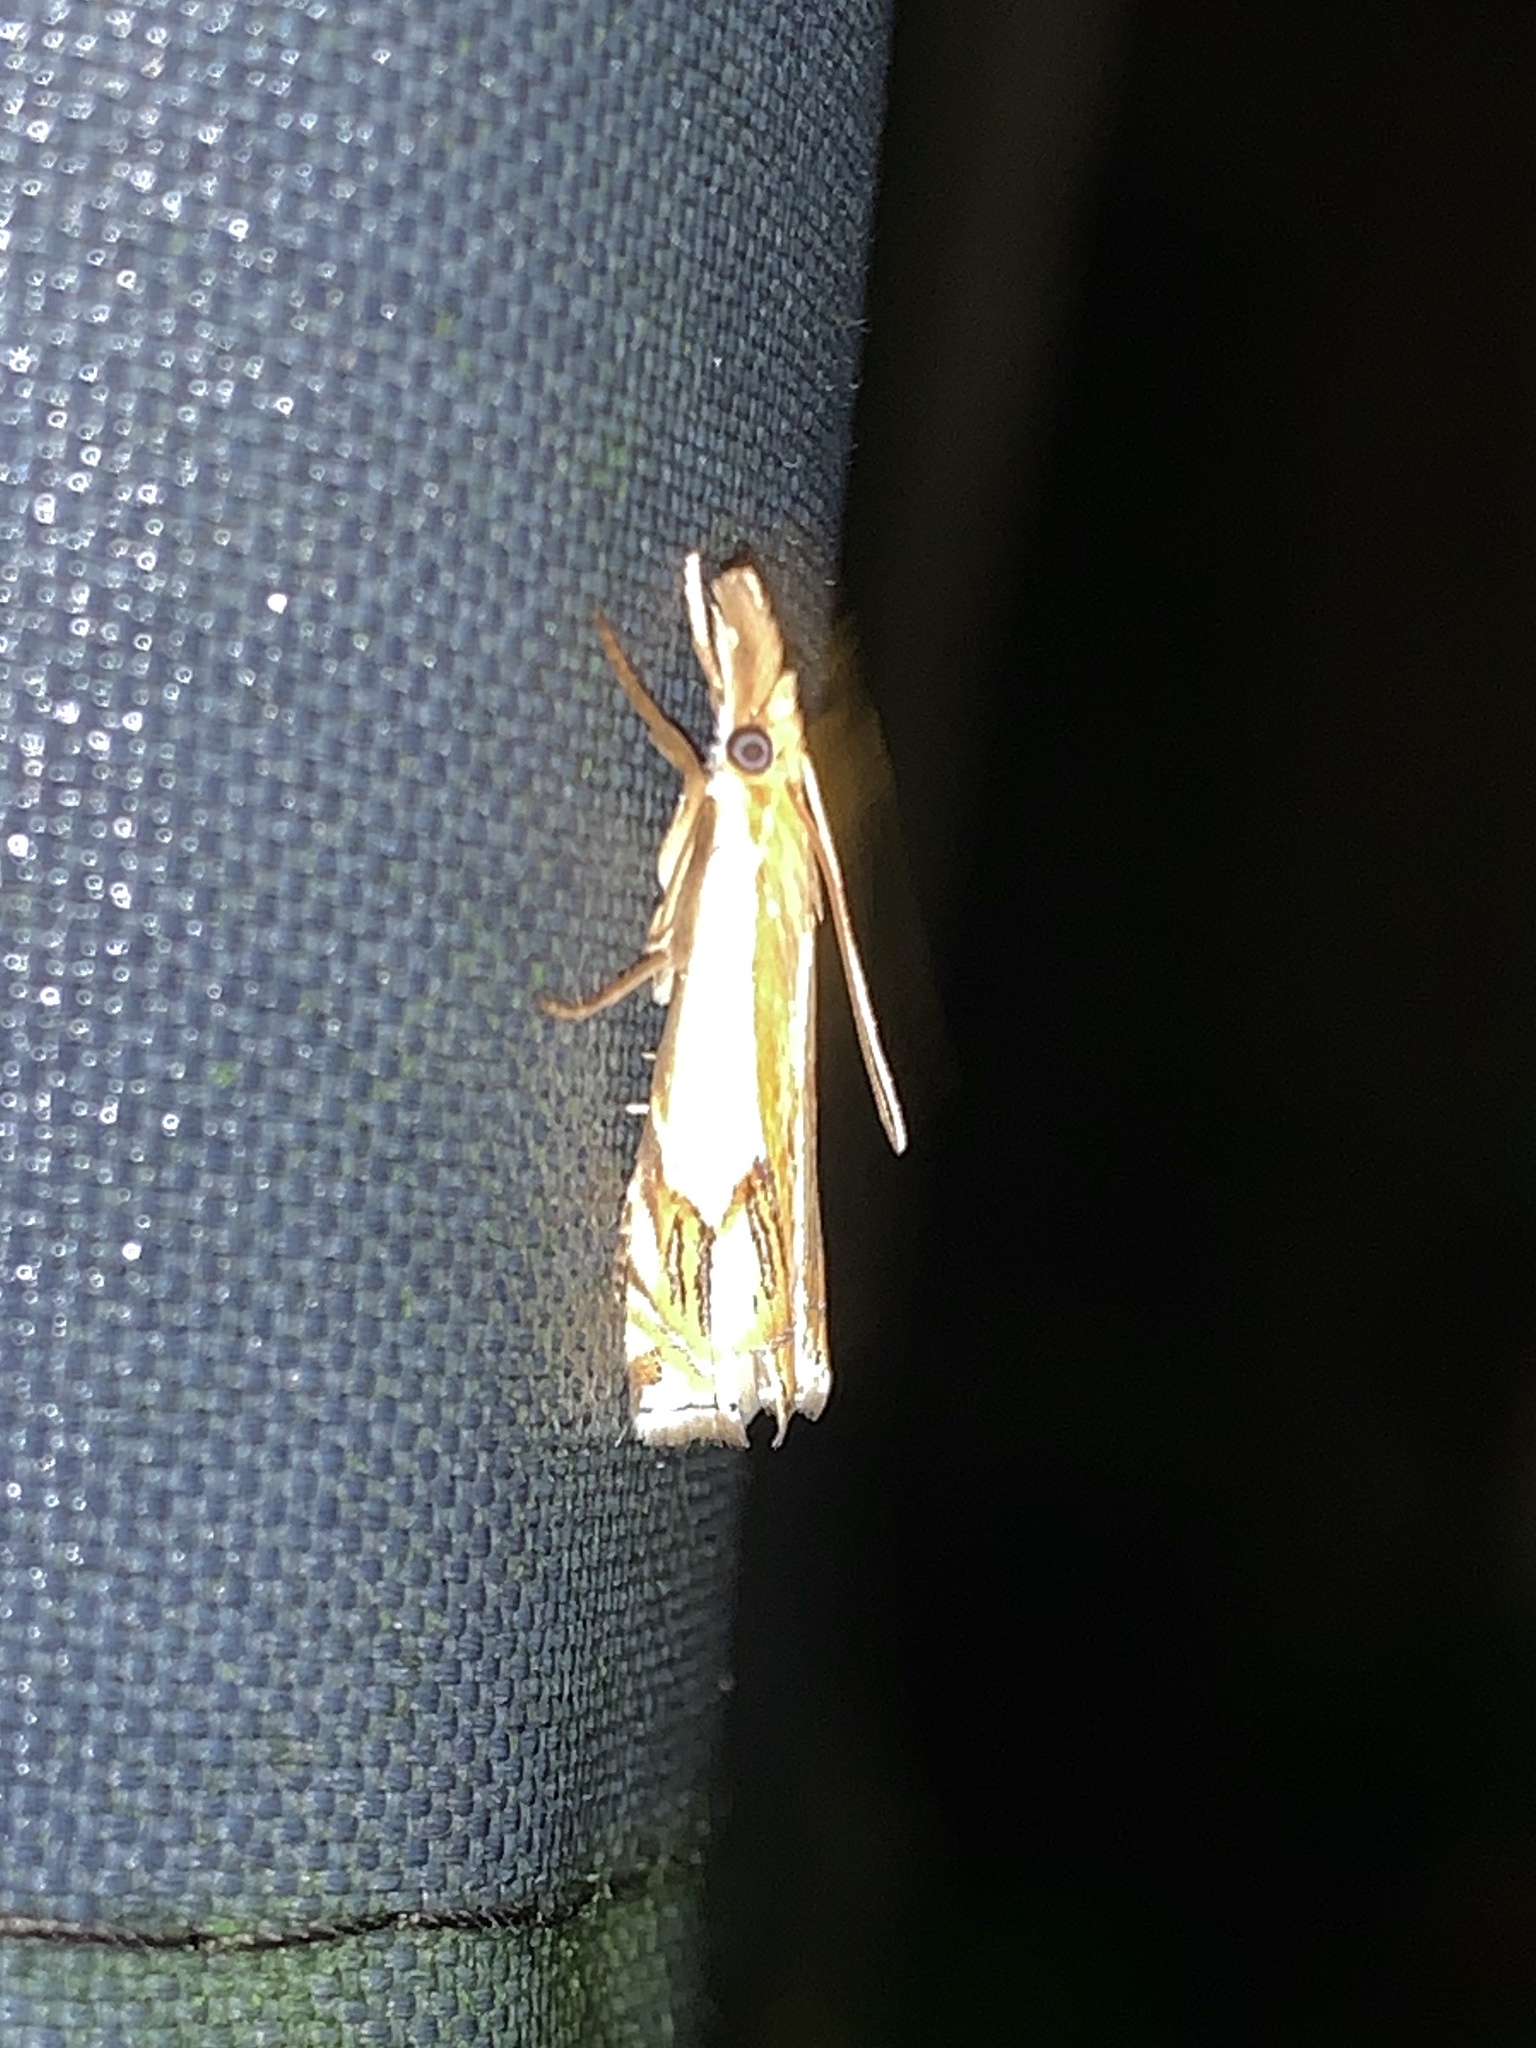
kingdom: Animalia
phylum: Arthropoda
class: Insecta
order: Lepidoptera
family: Crambidae
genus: Crambus
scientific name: Crambus agitatellus
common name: Double-banded grass-veneer
